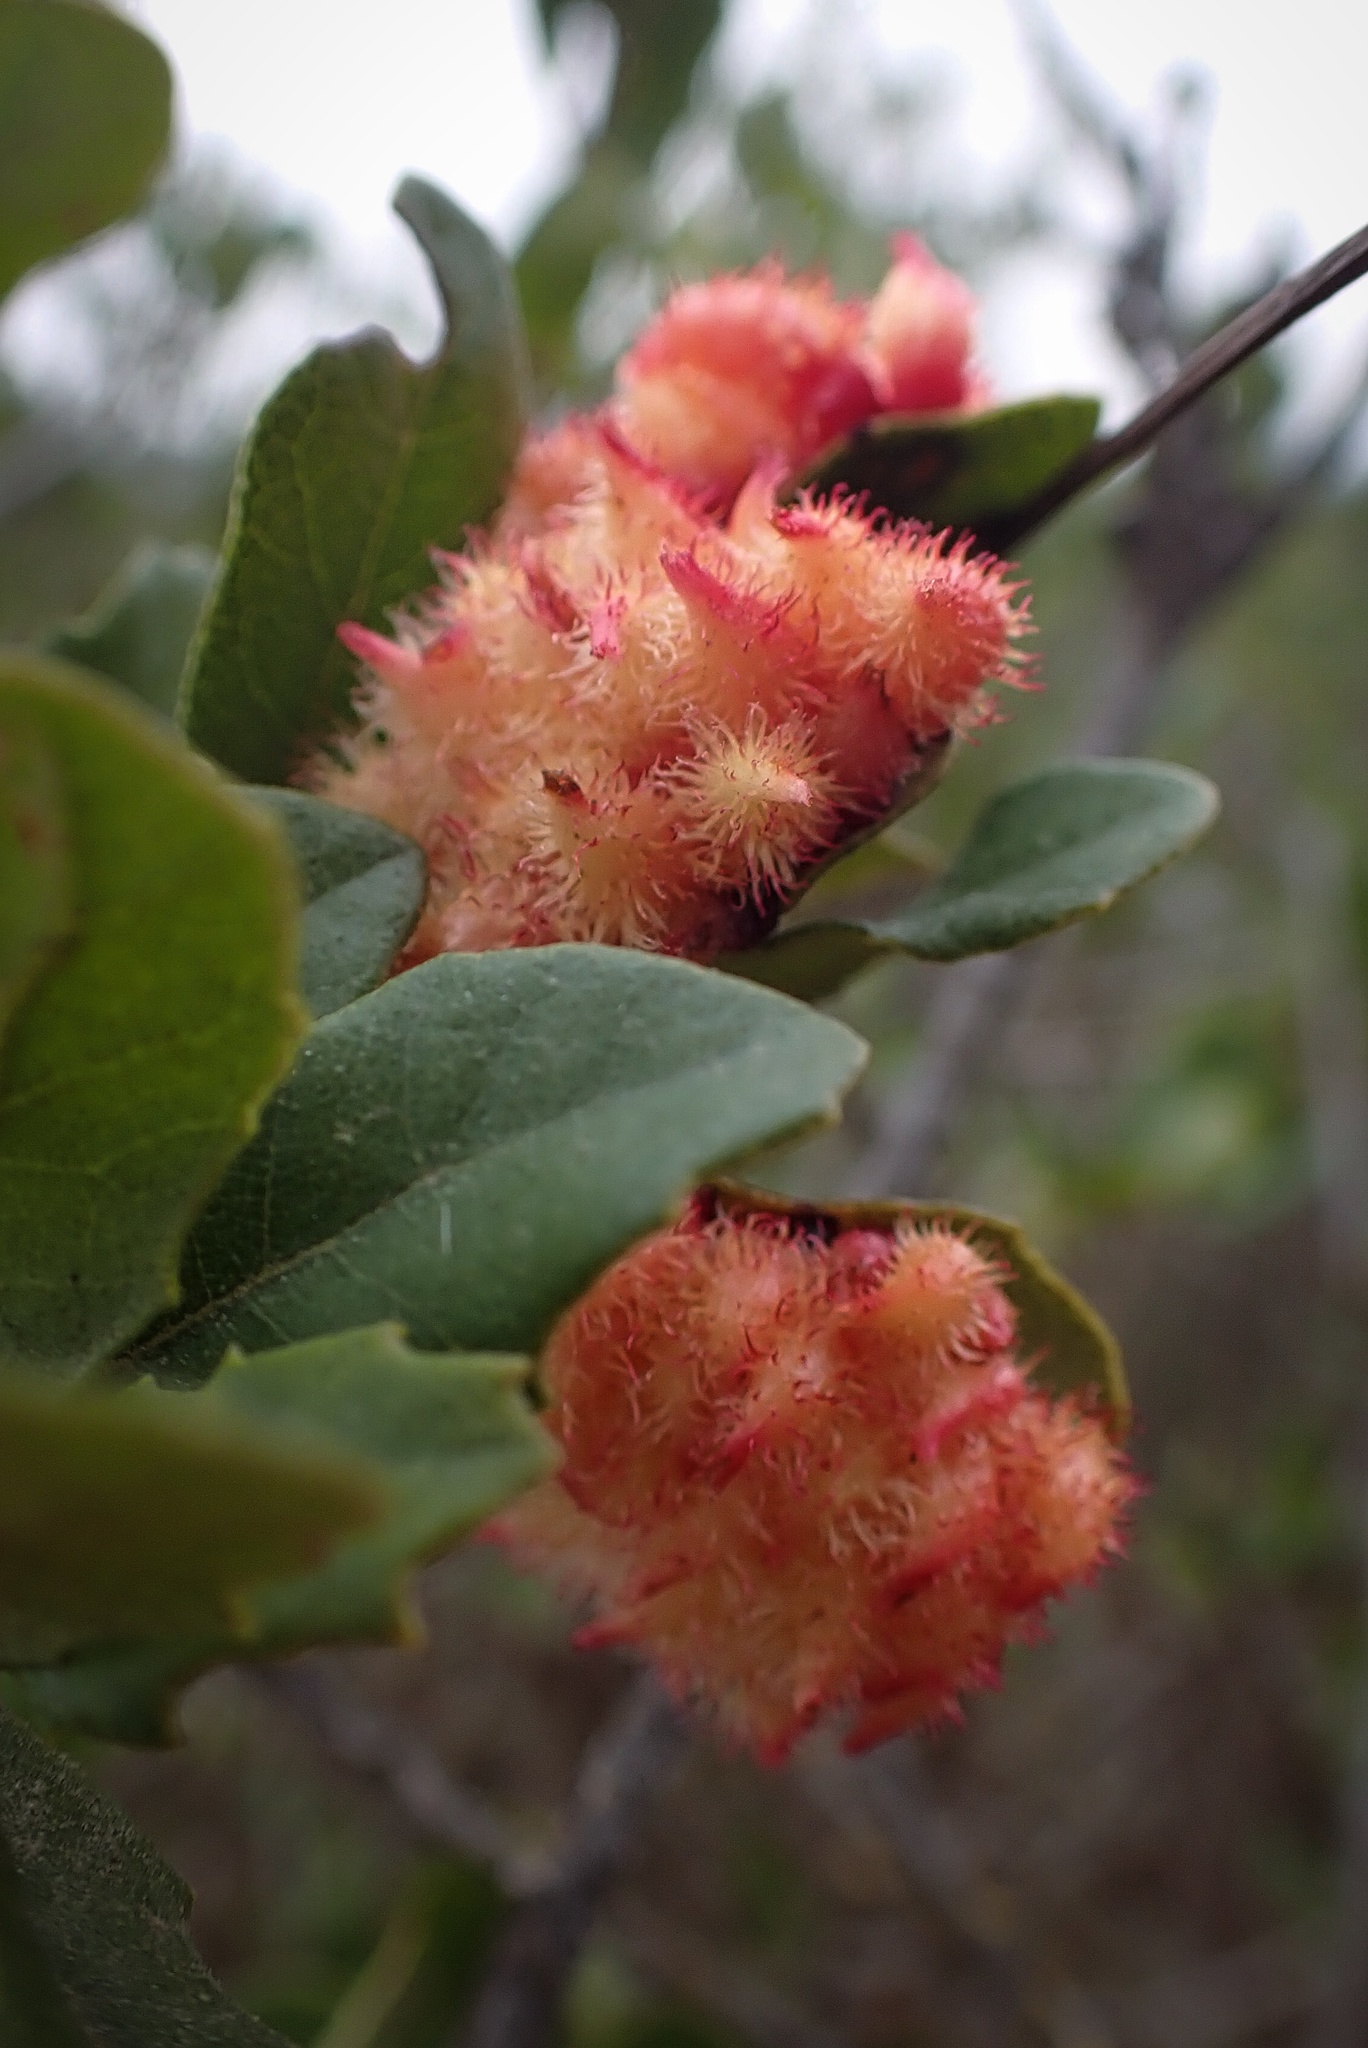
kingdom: Animalia
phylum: Arthropoda
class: Insecta
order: Hymenoptera
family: Cynipidae
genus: Andricus
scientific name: Andricus
